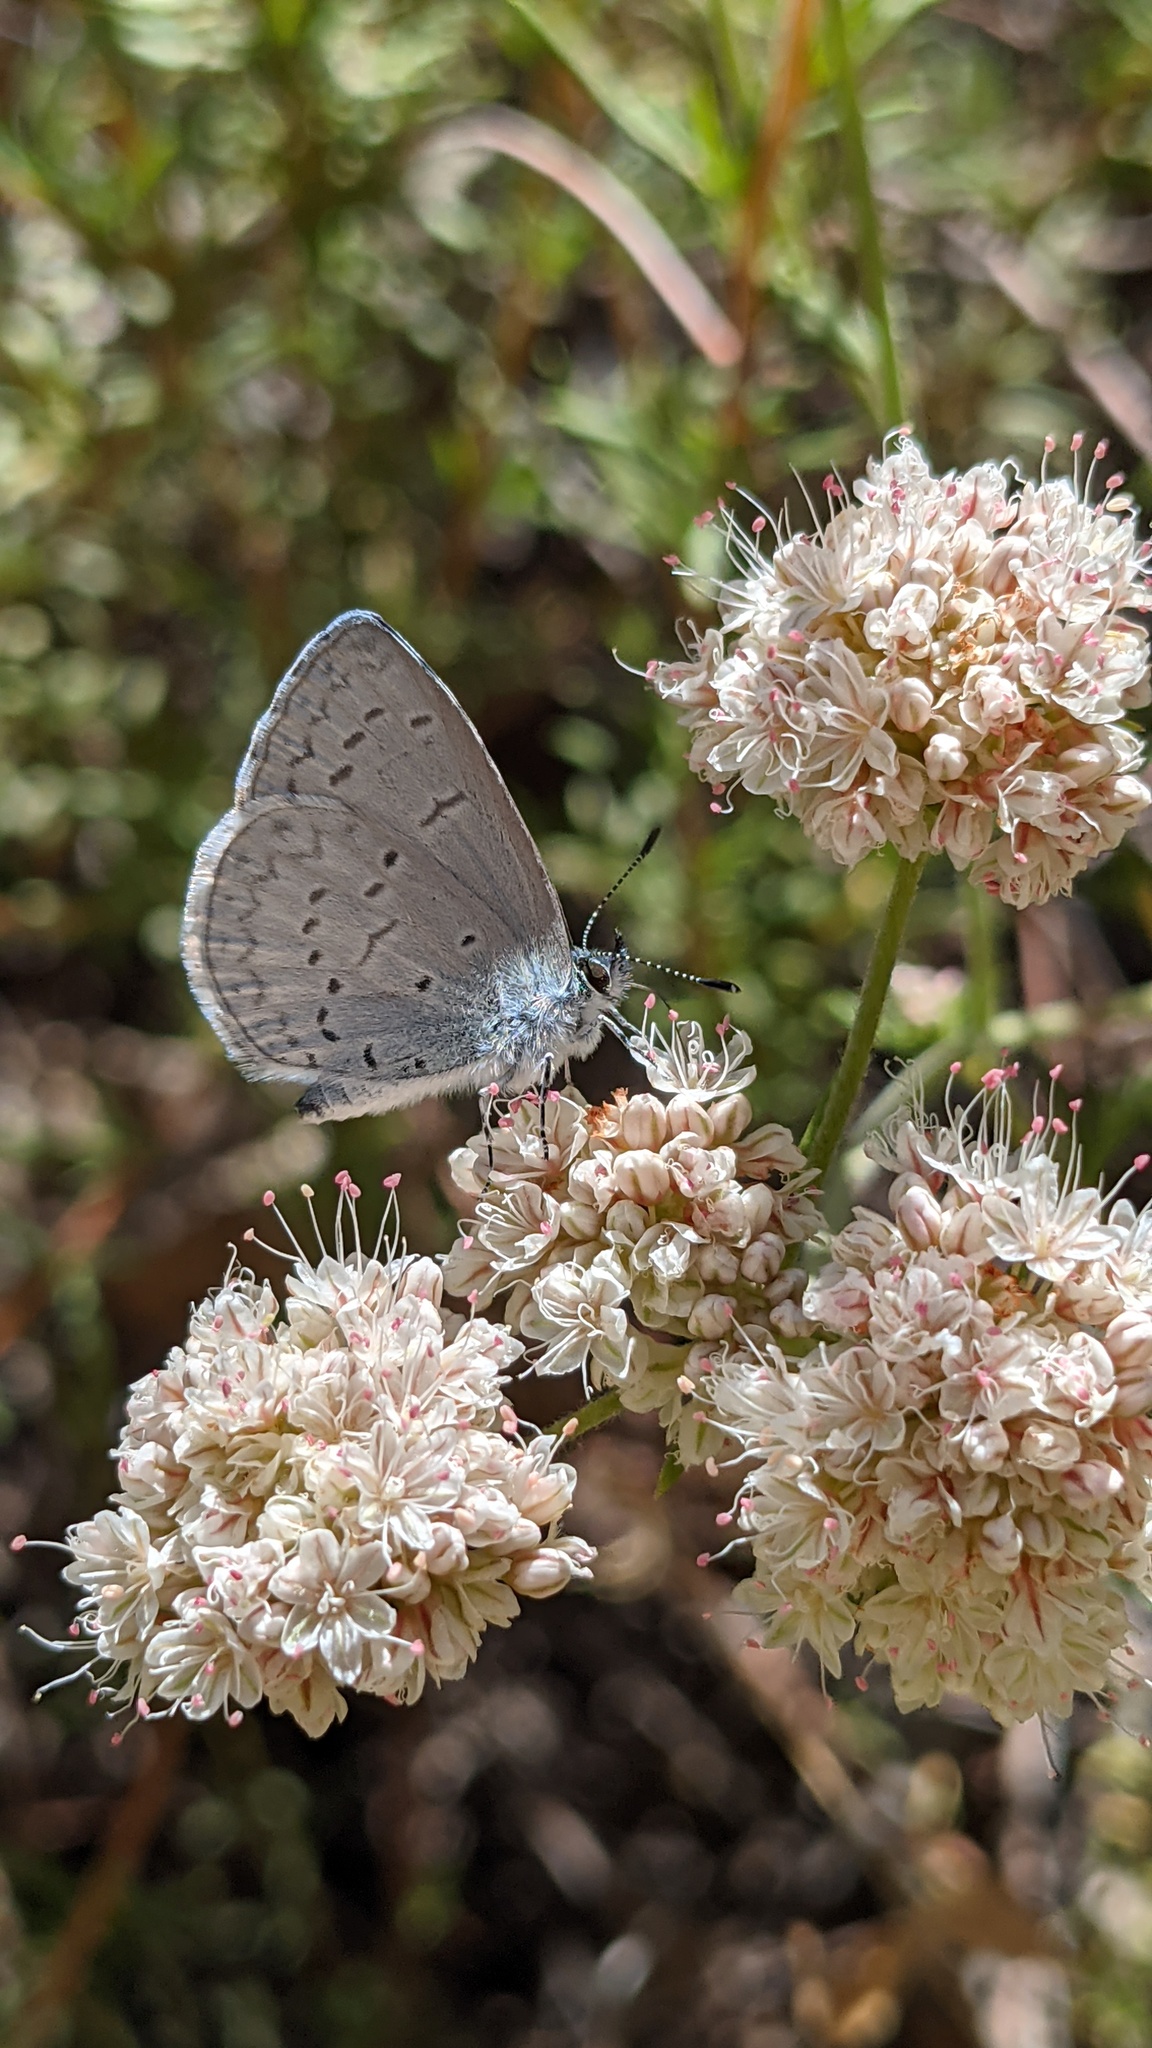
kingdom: Animalia
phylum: Arthropoda
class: Insecta
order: Lepidoptera
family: Lycaenidae
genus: Celastrina
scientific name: Celastrina ladon
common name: Spring azure
